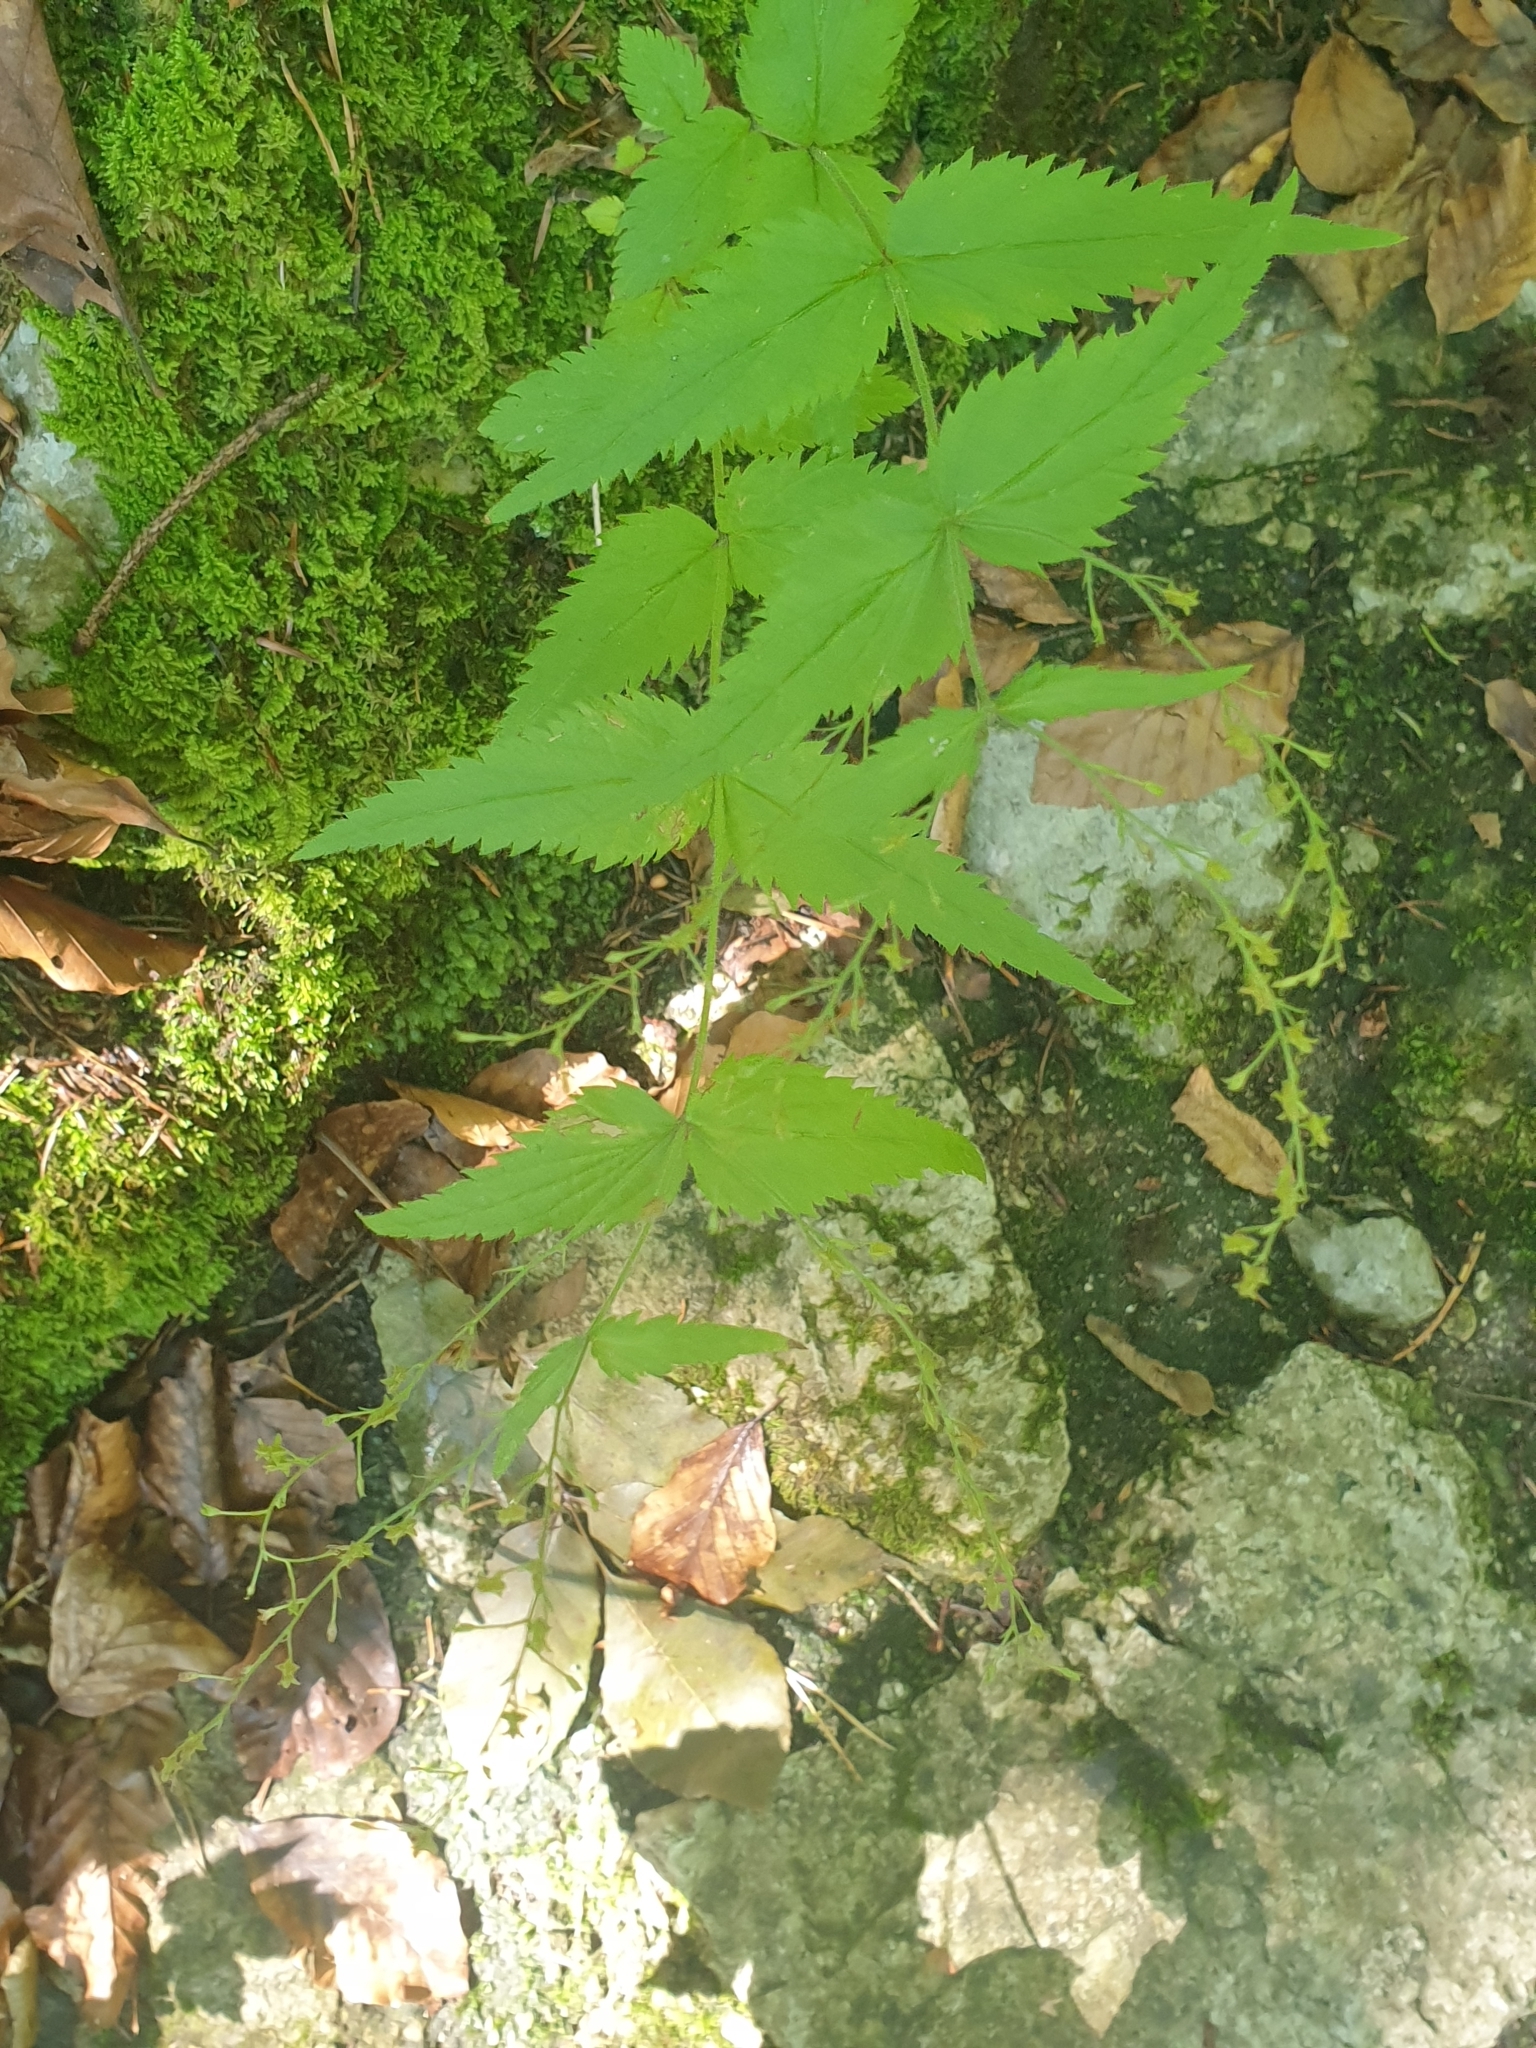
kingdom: Plantae
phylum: Tracheophyta
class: Magnoliopsida
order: Lamiales
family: Plantaginaceae
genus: Veronica
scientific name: Veronica urticifolia
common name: Nettle-leaf speedwell
